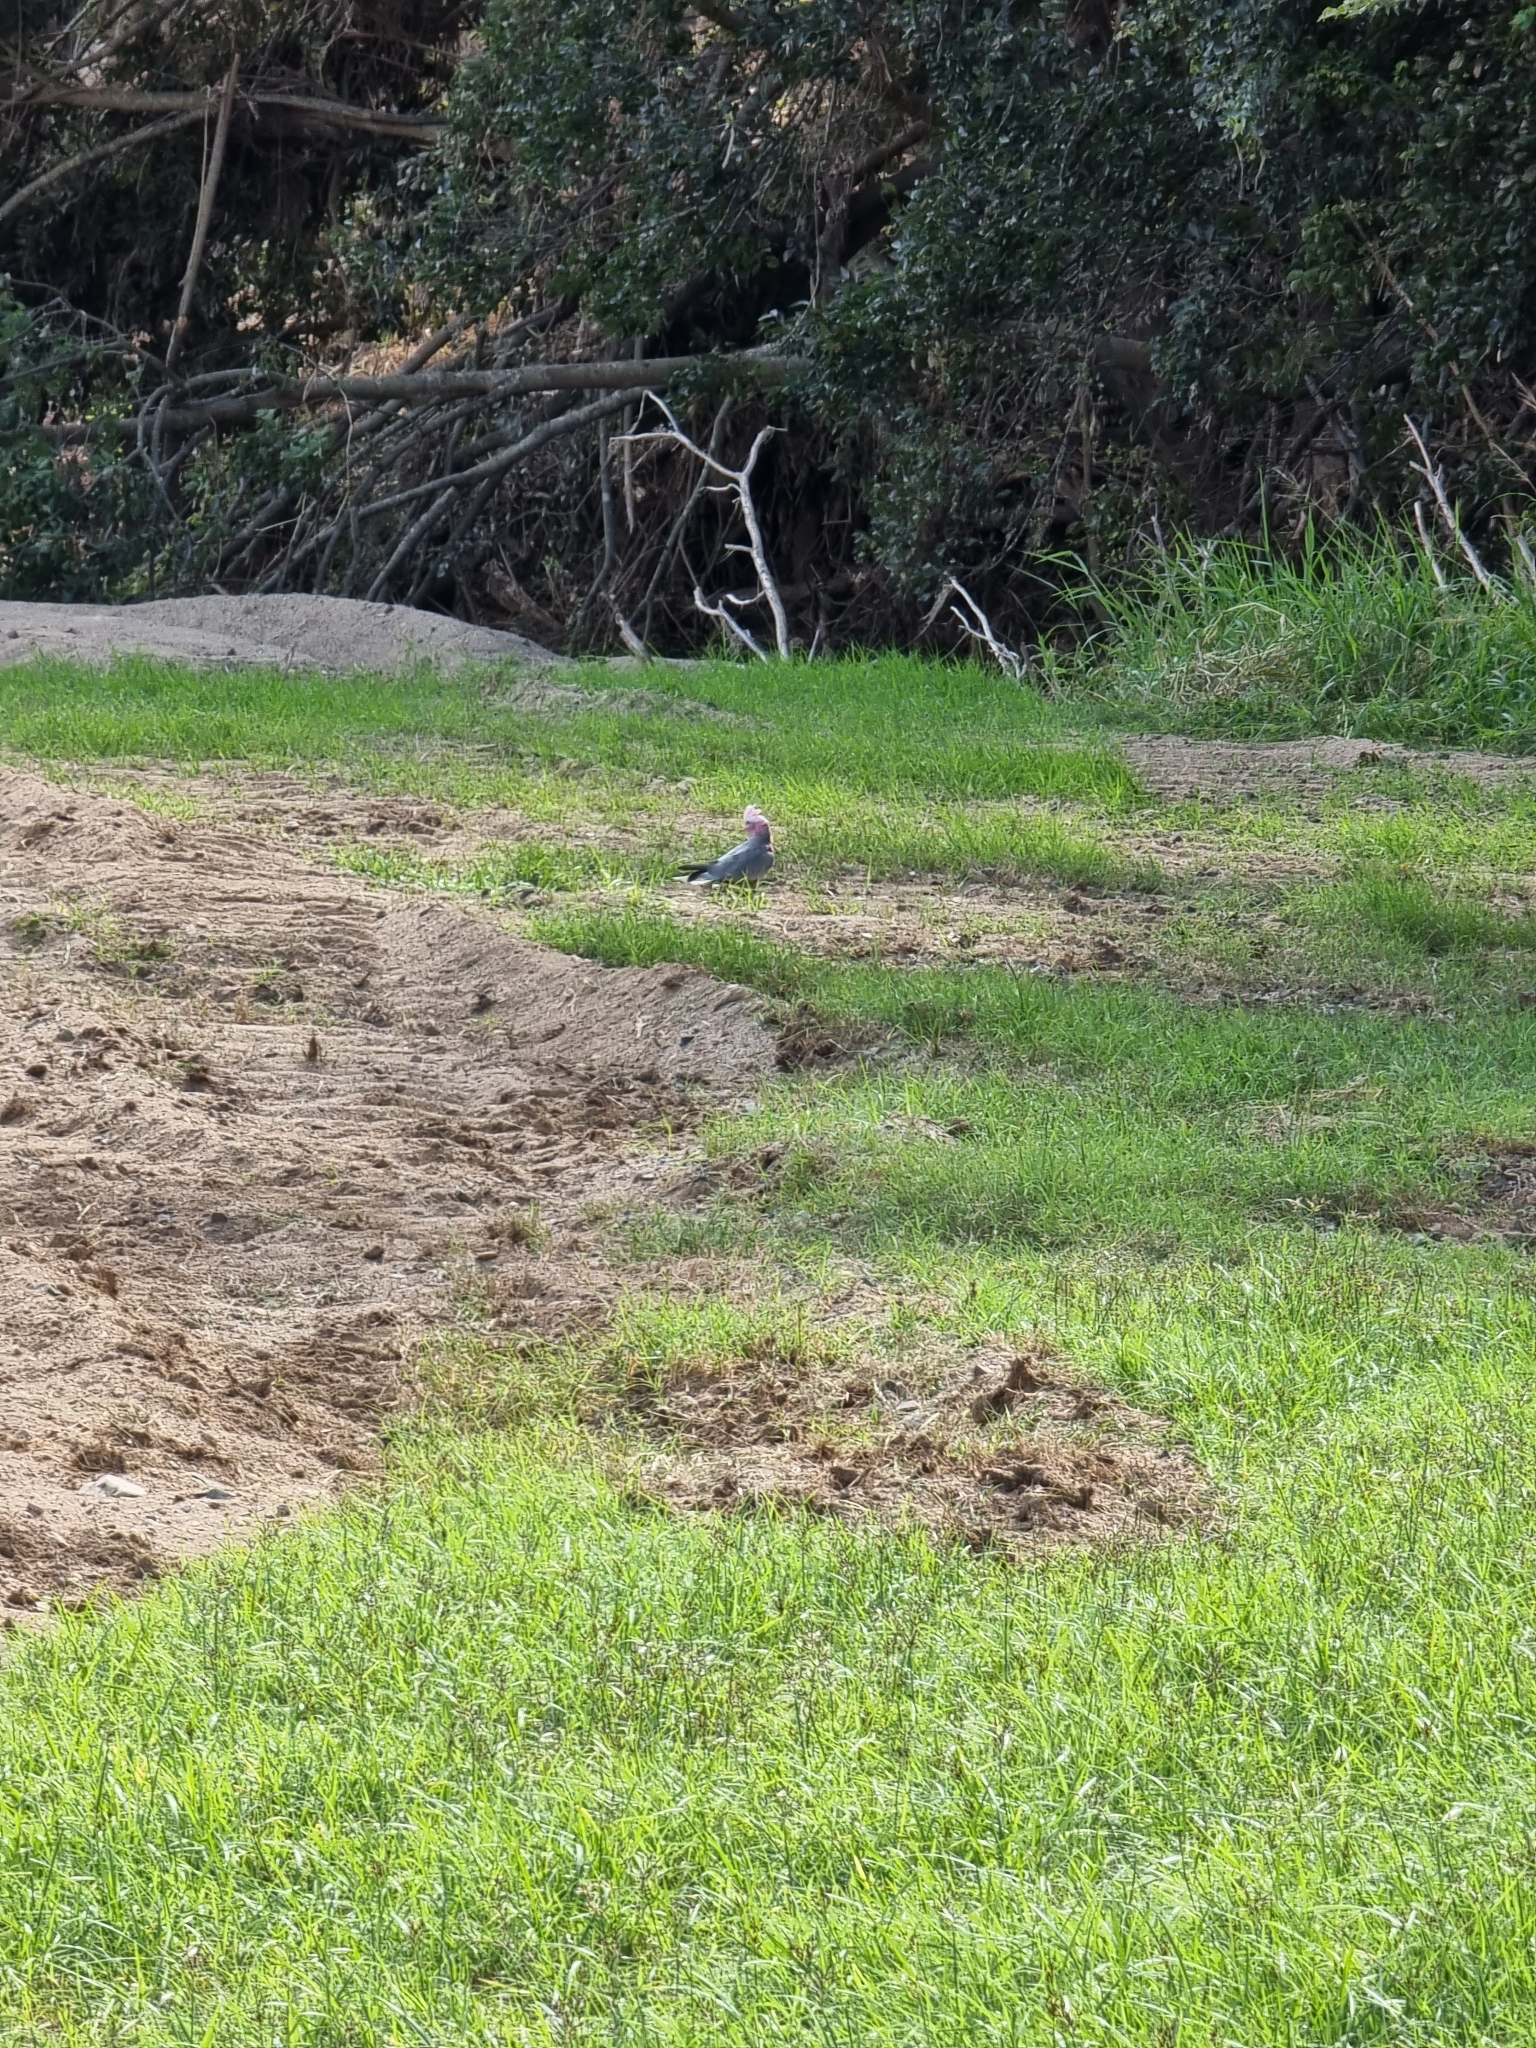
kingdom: Animalia
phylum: Chordata
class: Aves
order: Psittaciformes
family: Psittacidae
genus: Eolophus
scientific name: Eolophus roseicapilla
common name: Galah
